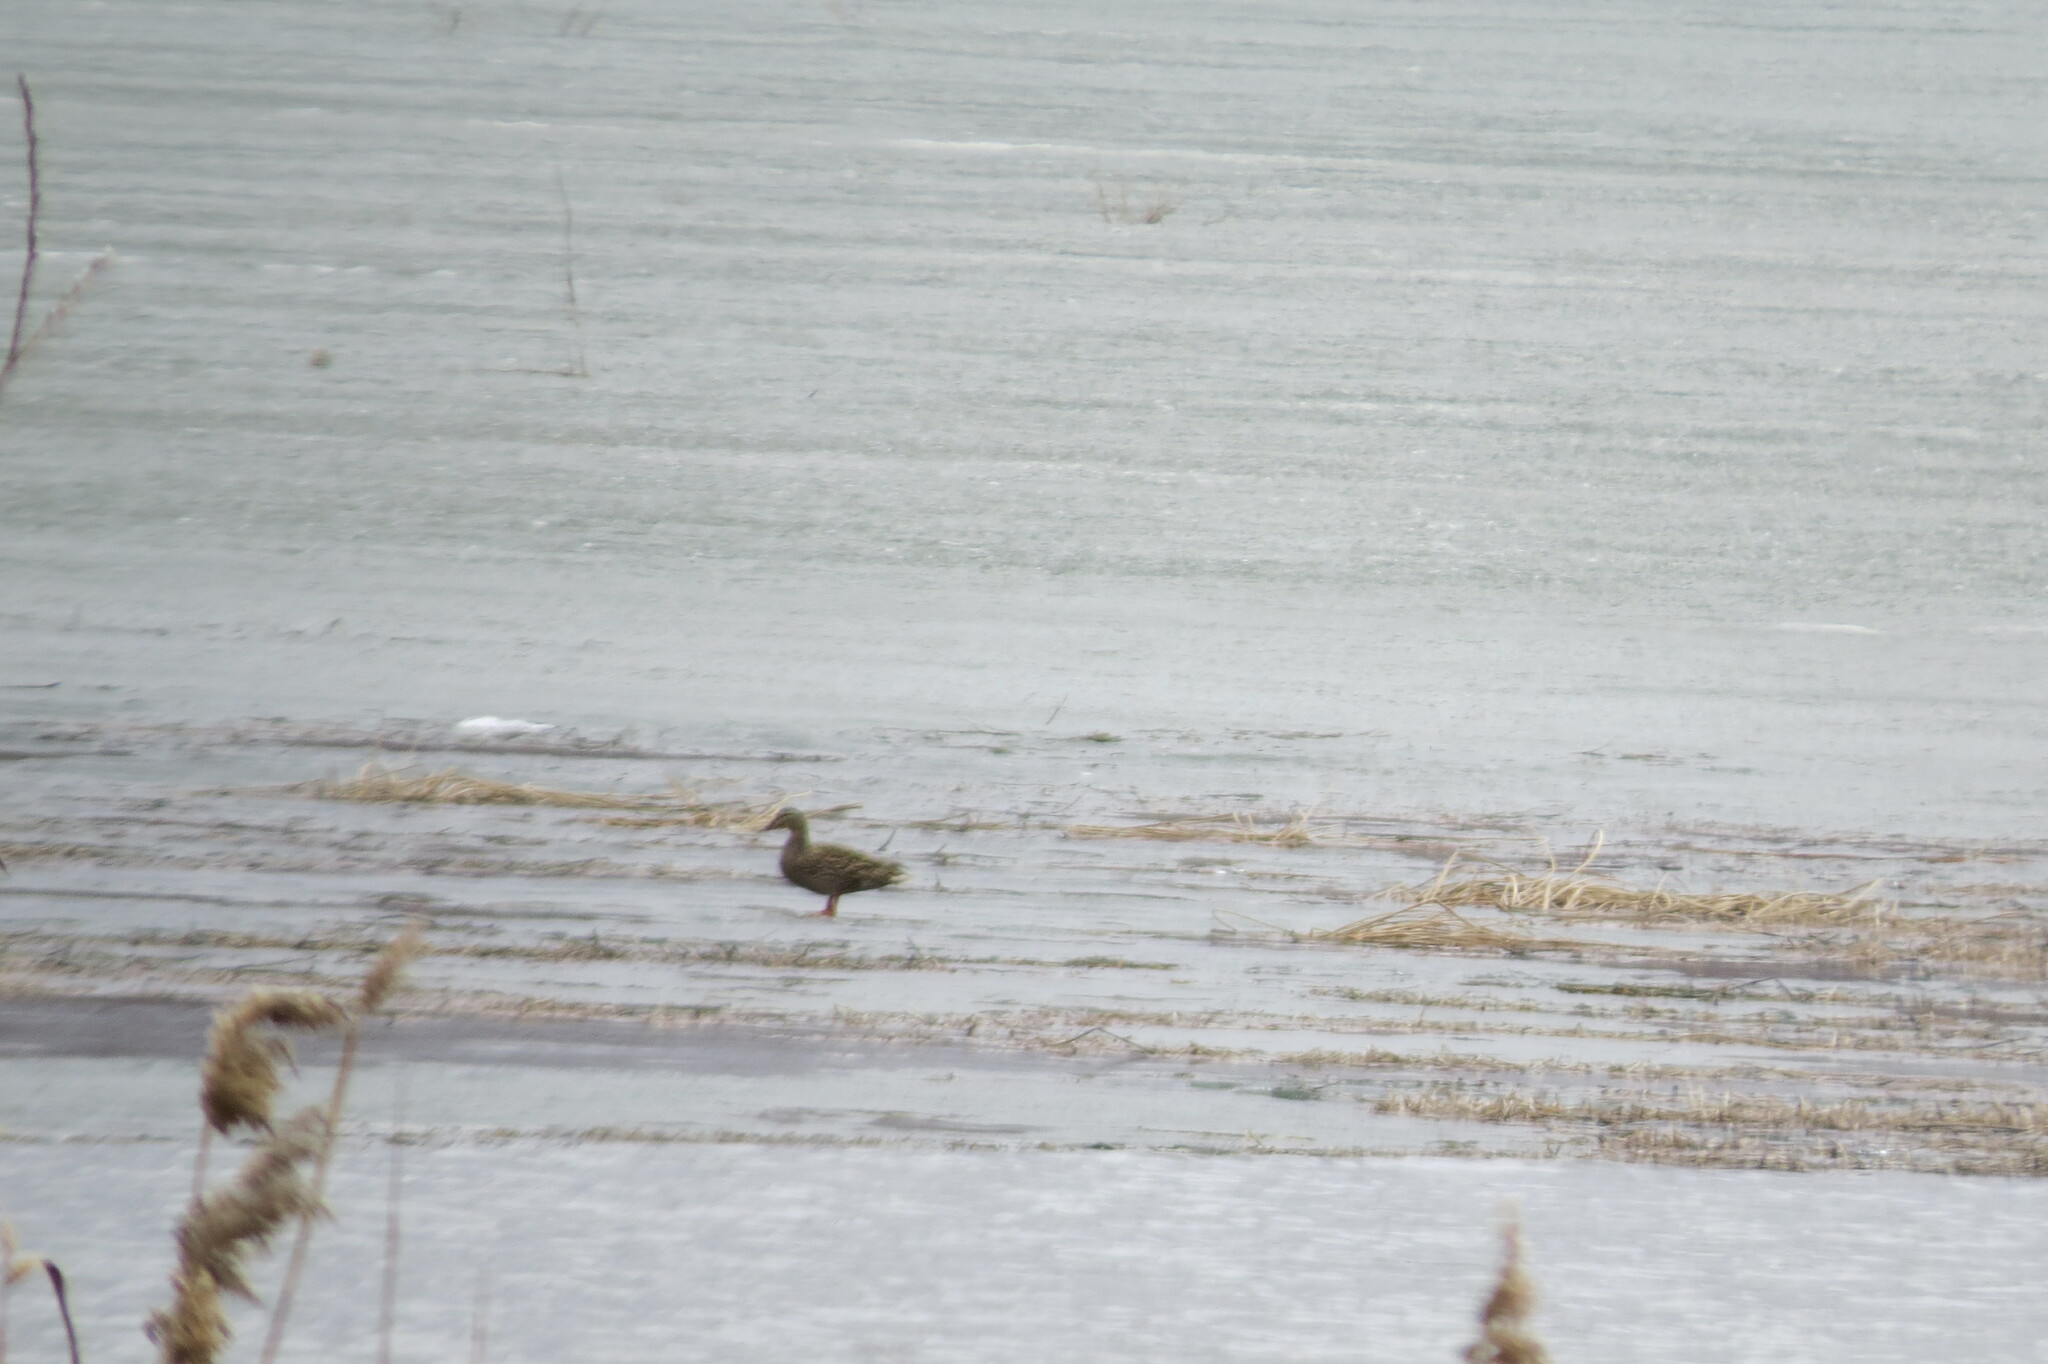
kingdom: Animalia
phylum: Chordata
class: Aves
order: Anseriformes
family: Anatidae
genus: Anas
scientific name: Anas platyrhynchos
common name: Mallard
